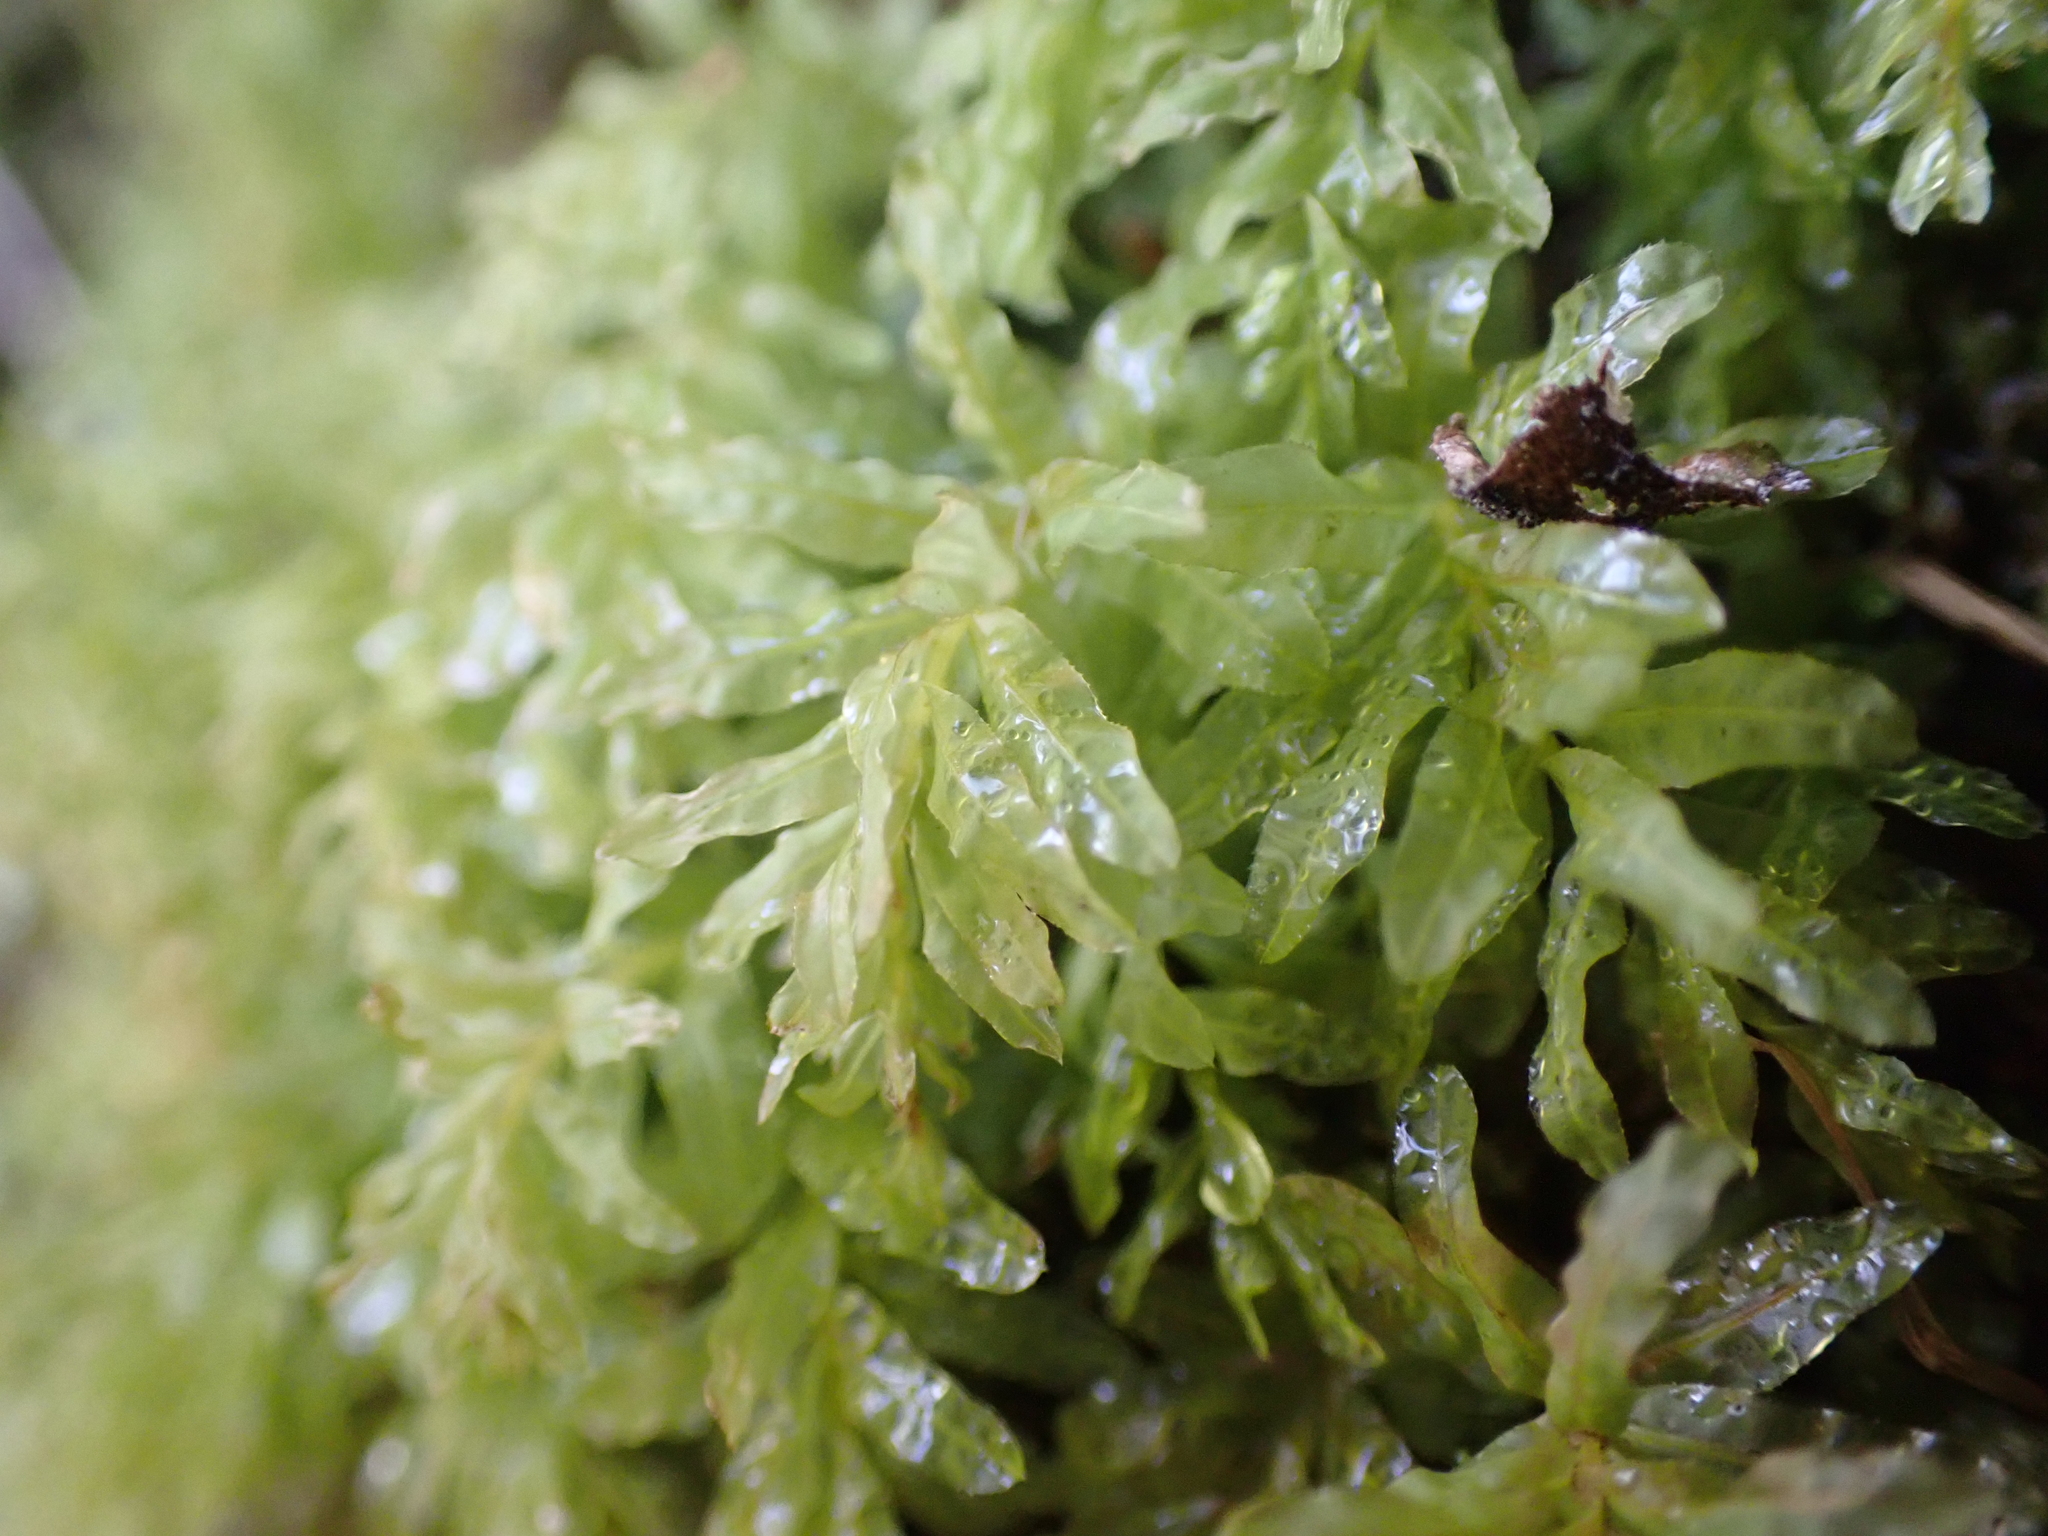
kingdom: Plantae
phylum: Bryophyta
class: Bryopsida
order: Bryales
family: Mniaceae
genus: Plagiomnium
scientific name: Plagiomnium undulatum
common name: Hart's-tongue thyme-moss
